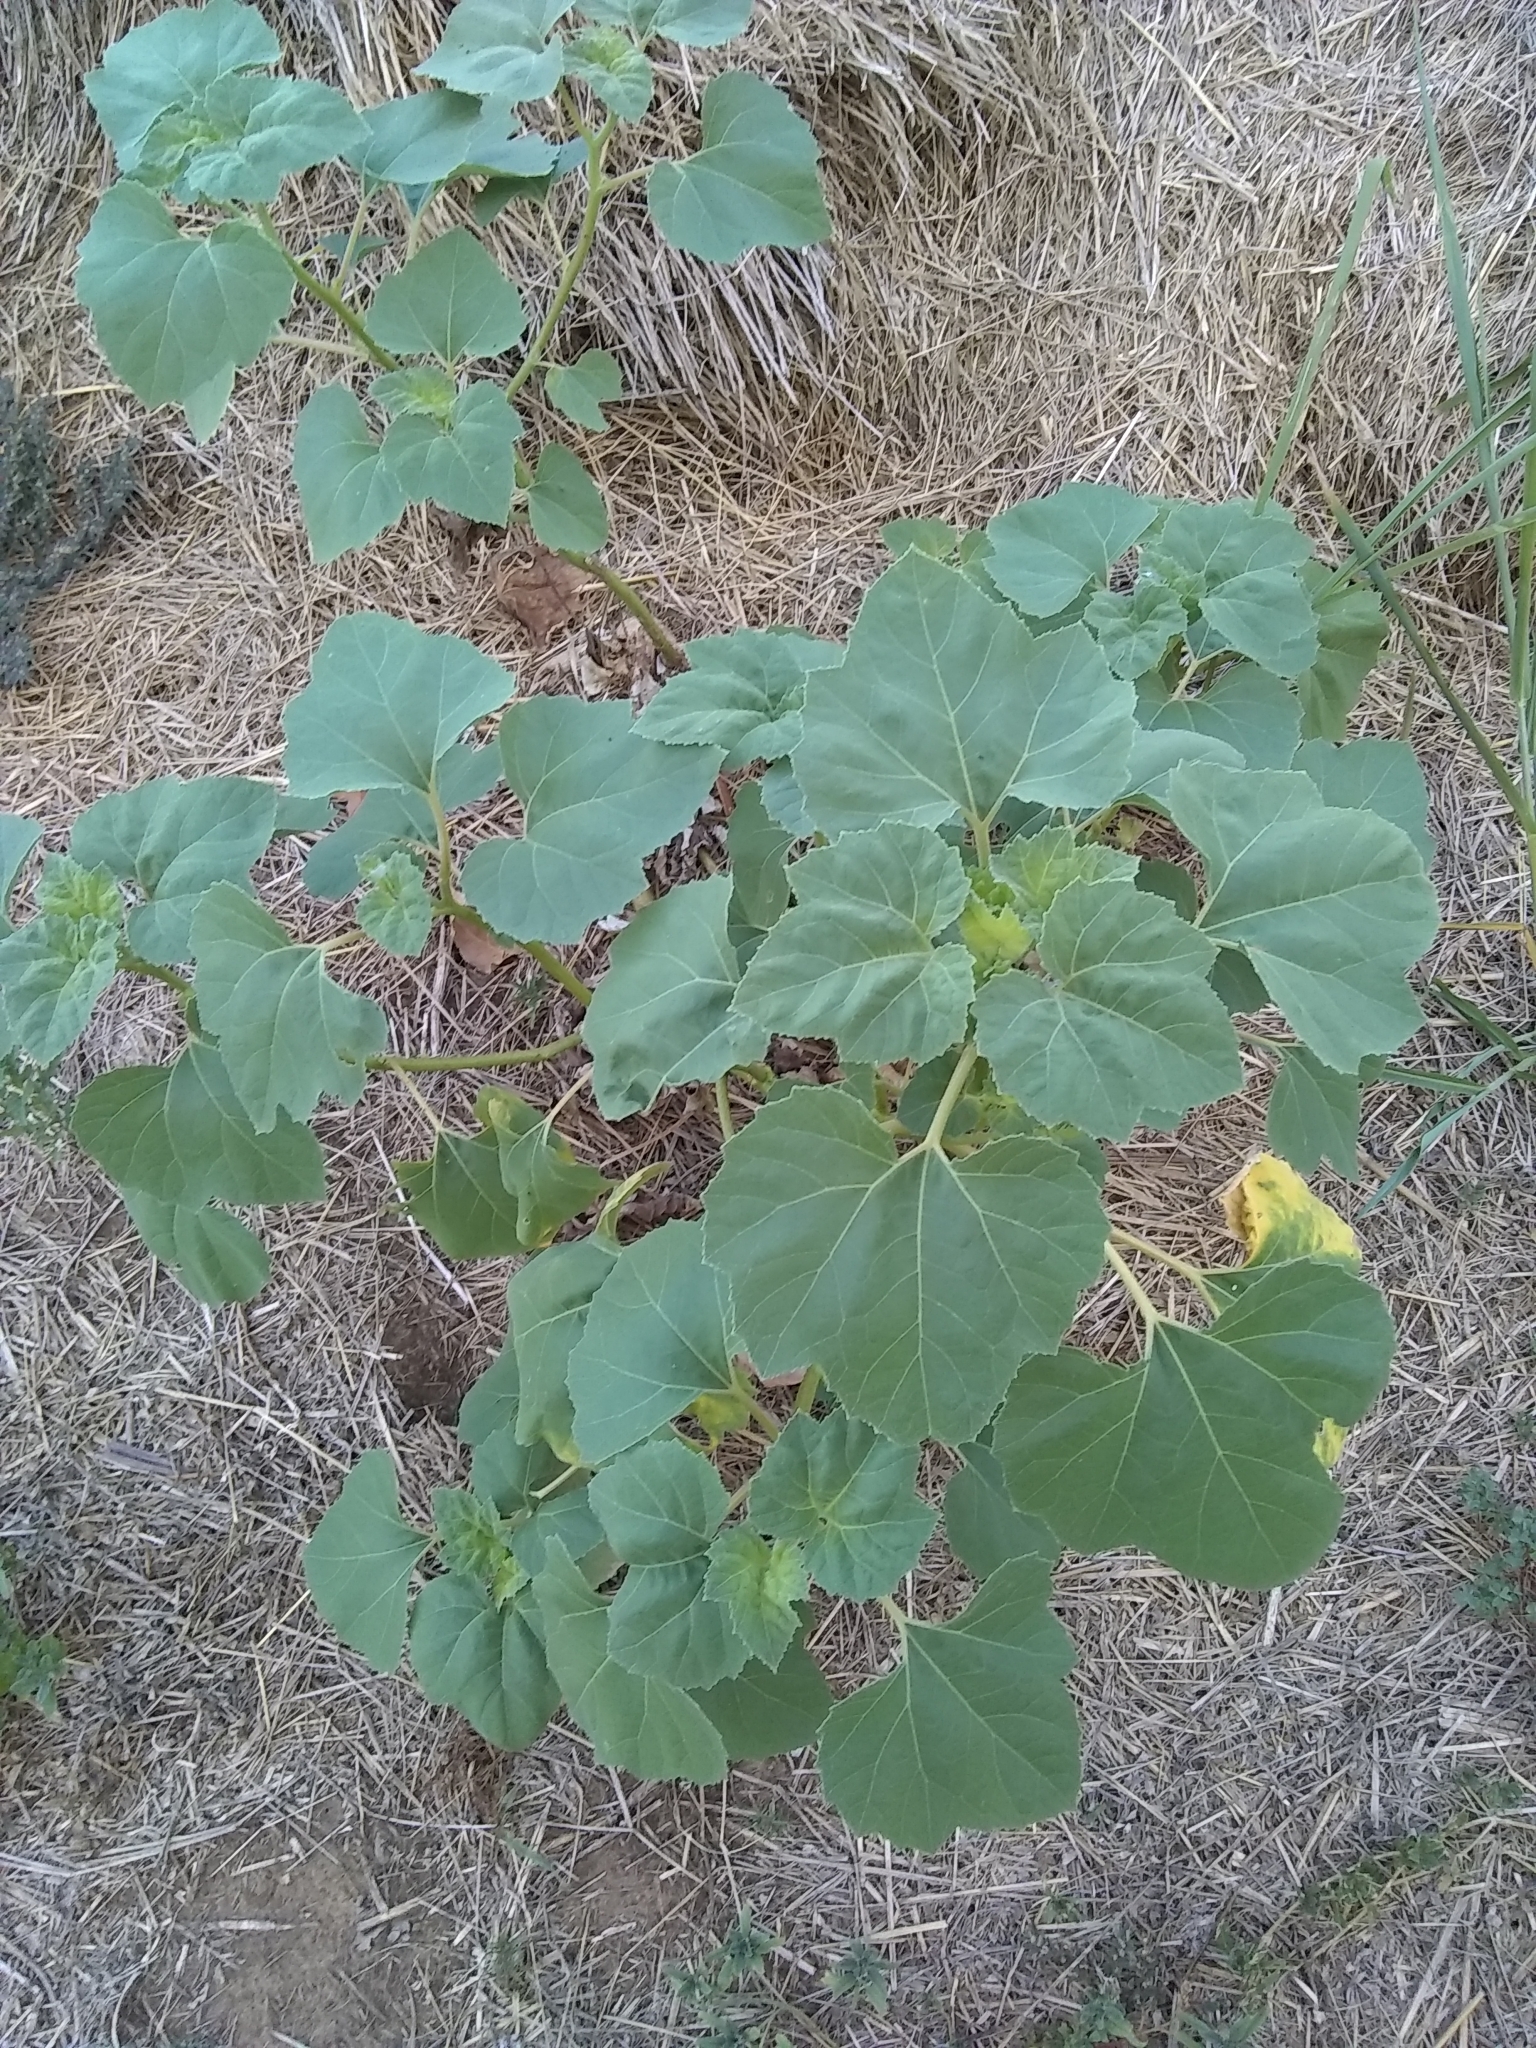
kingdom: Plantae
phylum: Tracheophyta
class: Magnoliopsida
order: Asterales
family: Asteraceae
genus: Xanthium
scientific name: Xanthium strumarium
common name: Rough cocklebur
